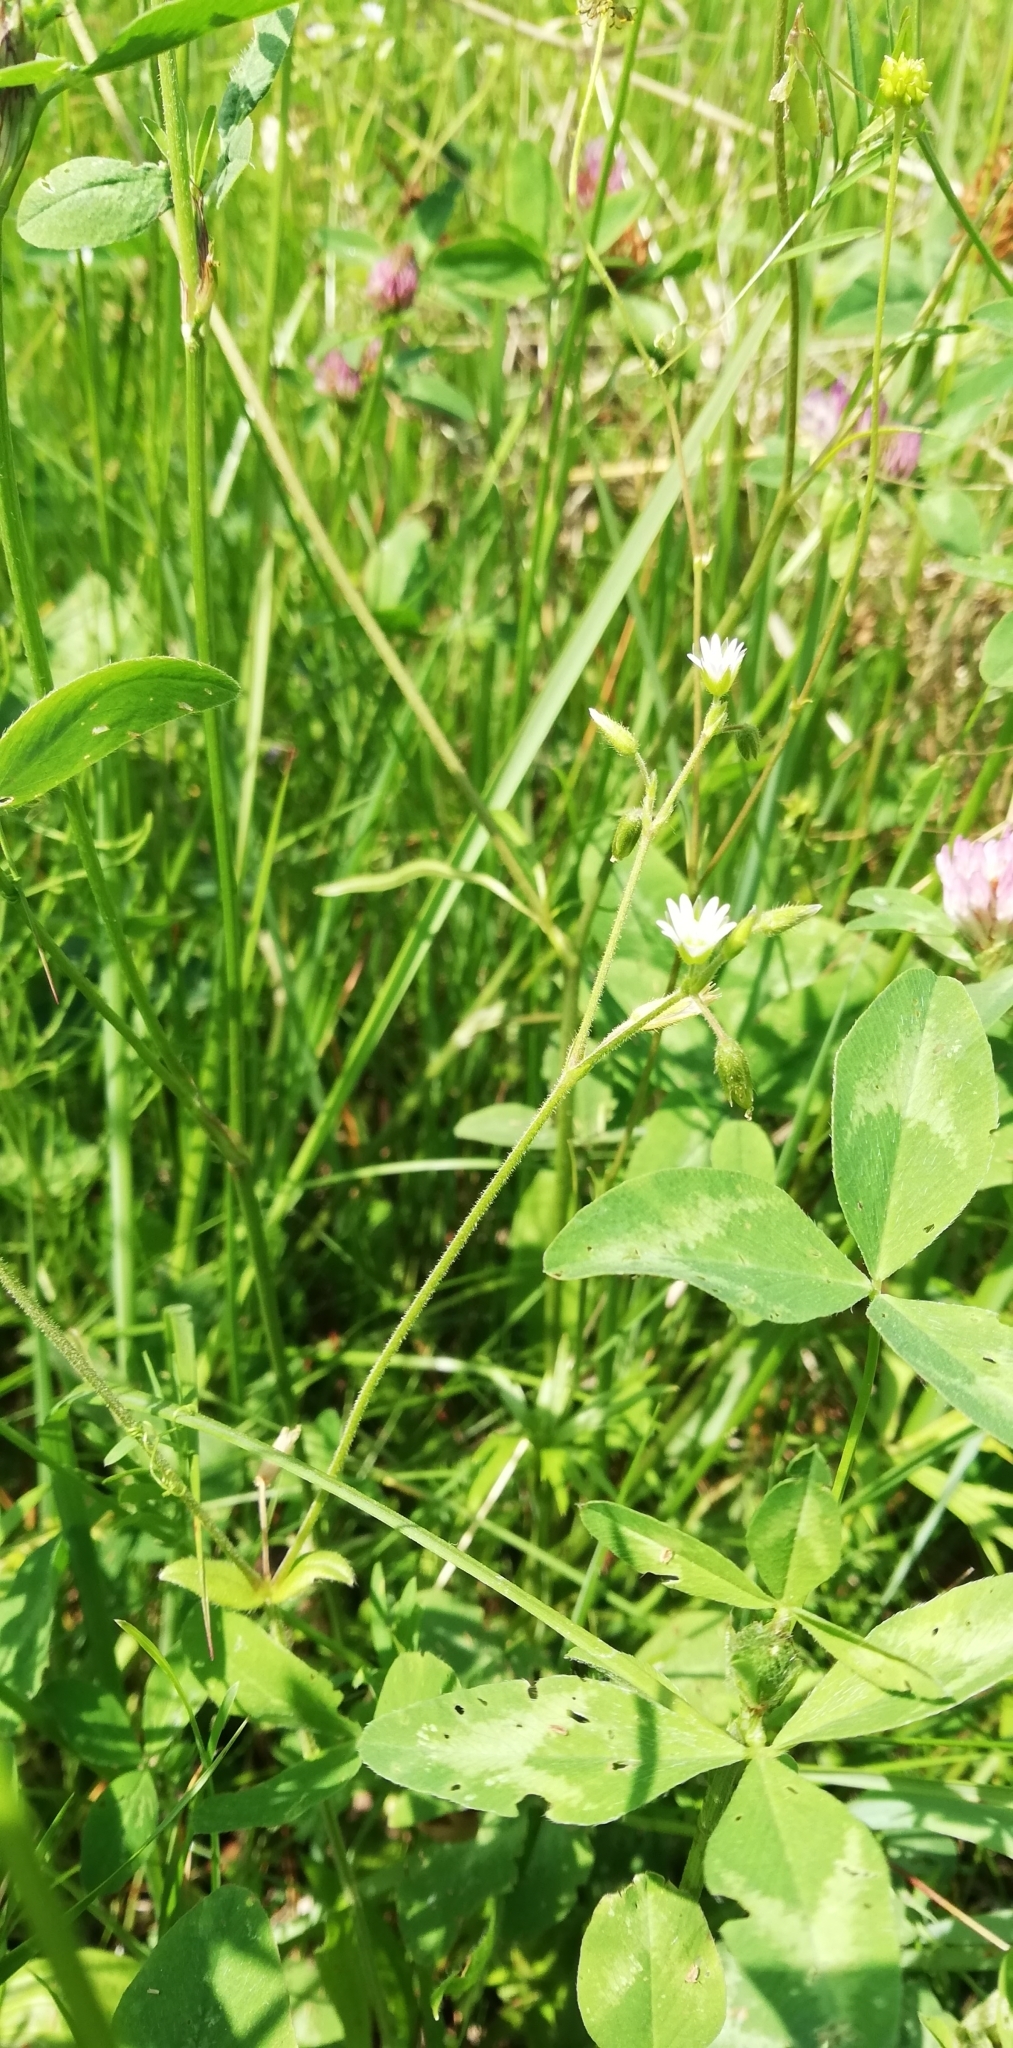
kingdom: Plantae
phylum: Tracheophyta
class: Magnoliopsida
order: Caryophyllales
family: Caryophyllaceae
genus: Cerastium
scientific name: Cerastium holosteoides
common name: Big chickweed
